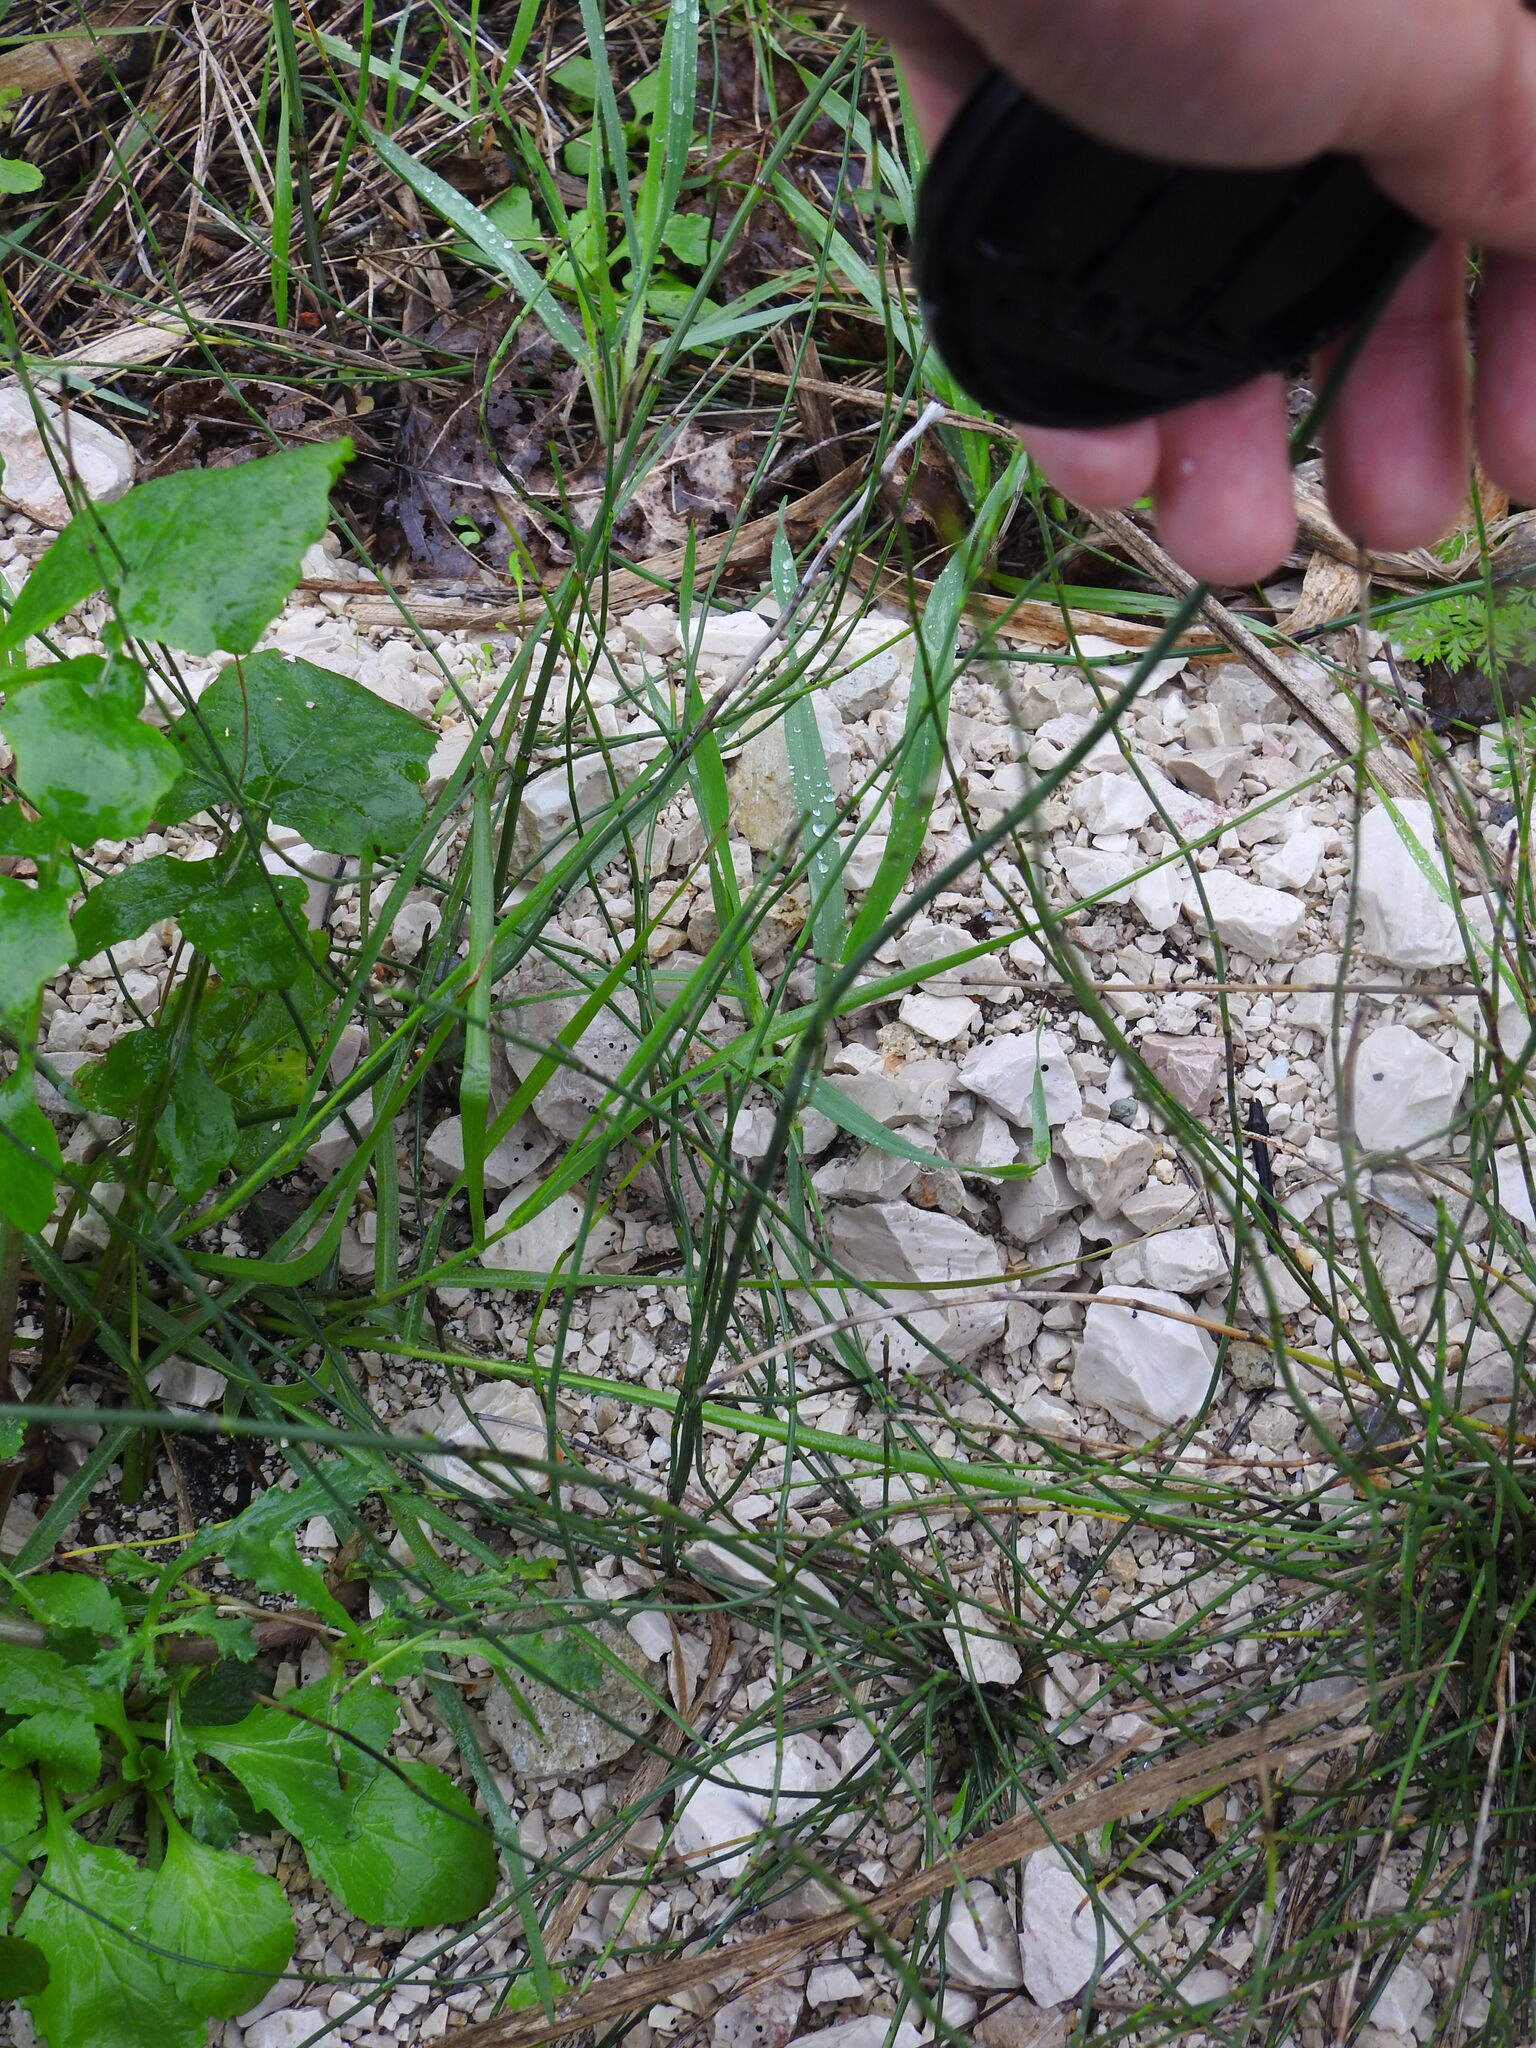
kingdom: Plantae
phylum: Tracheophyta
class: Polypodiopsida
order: Equisetales
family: Equisetaceae
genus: Equisetum
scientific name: Equisetum ramosissimum
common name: Branched horsetail
